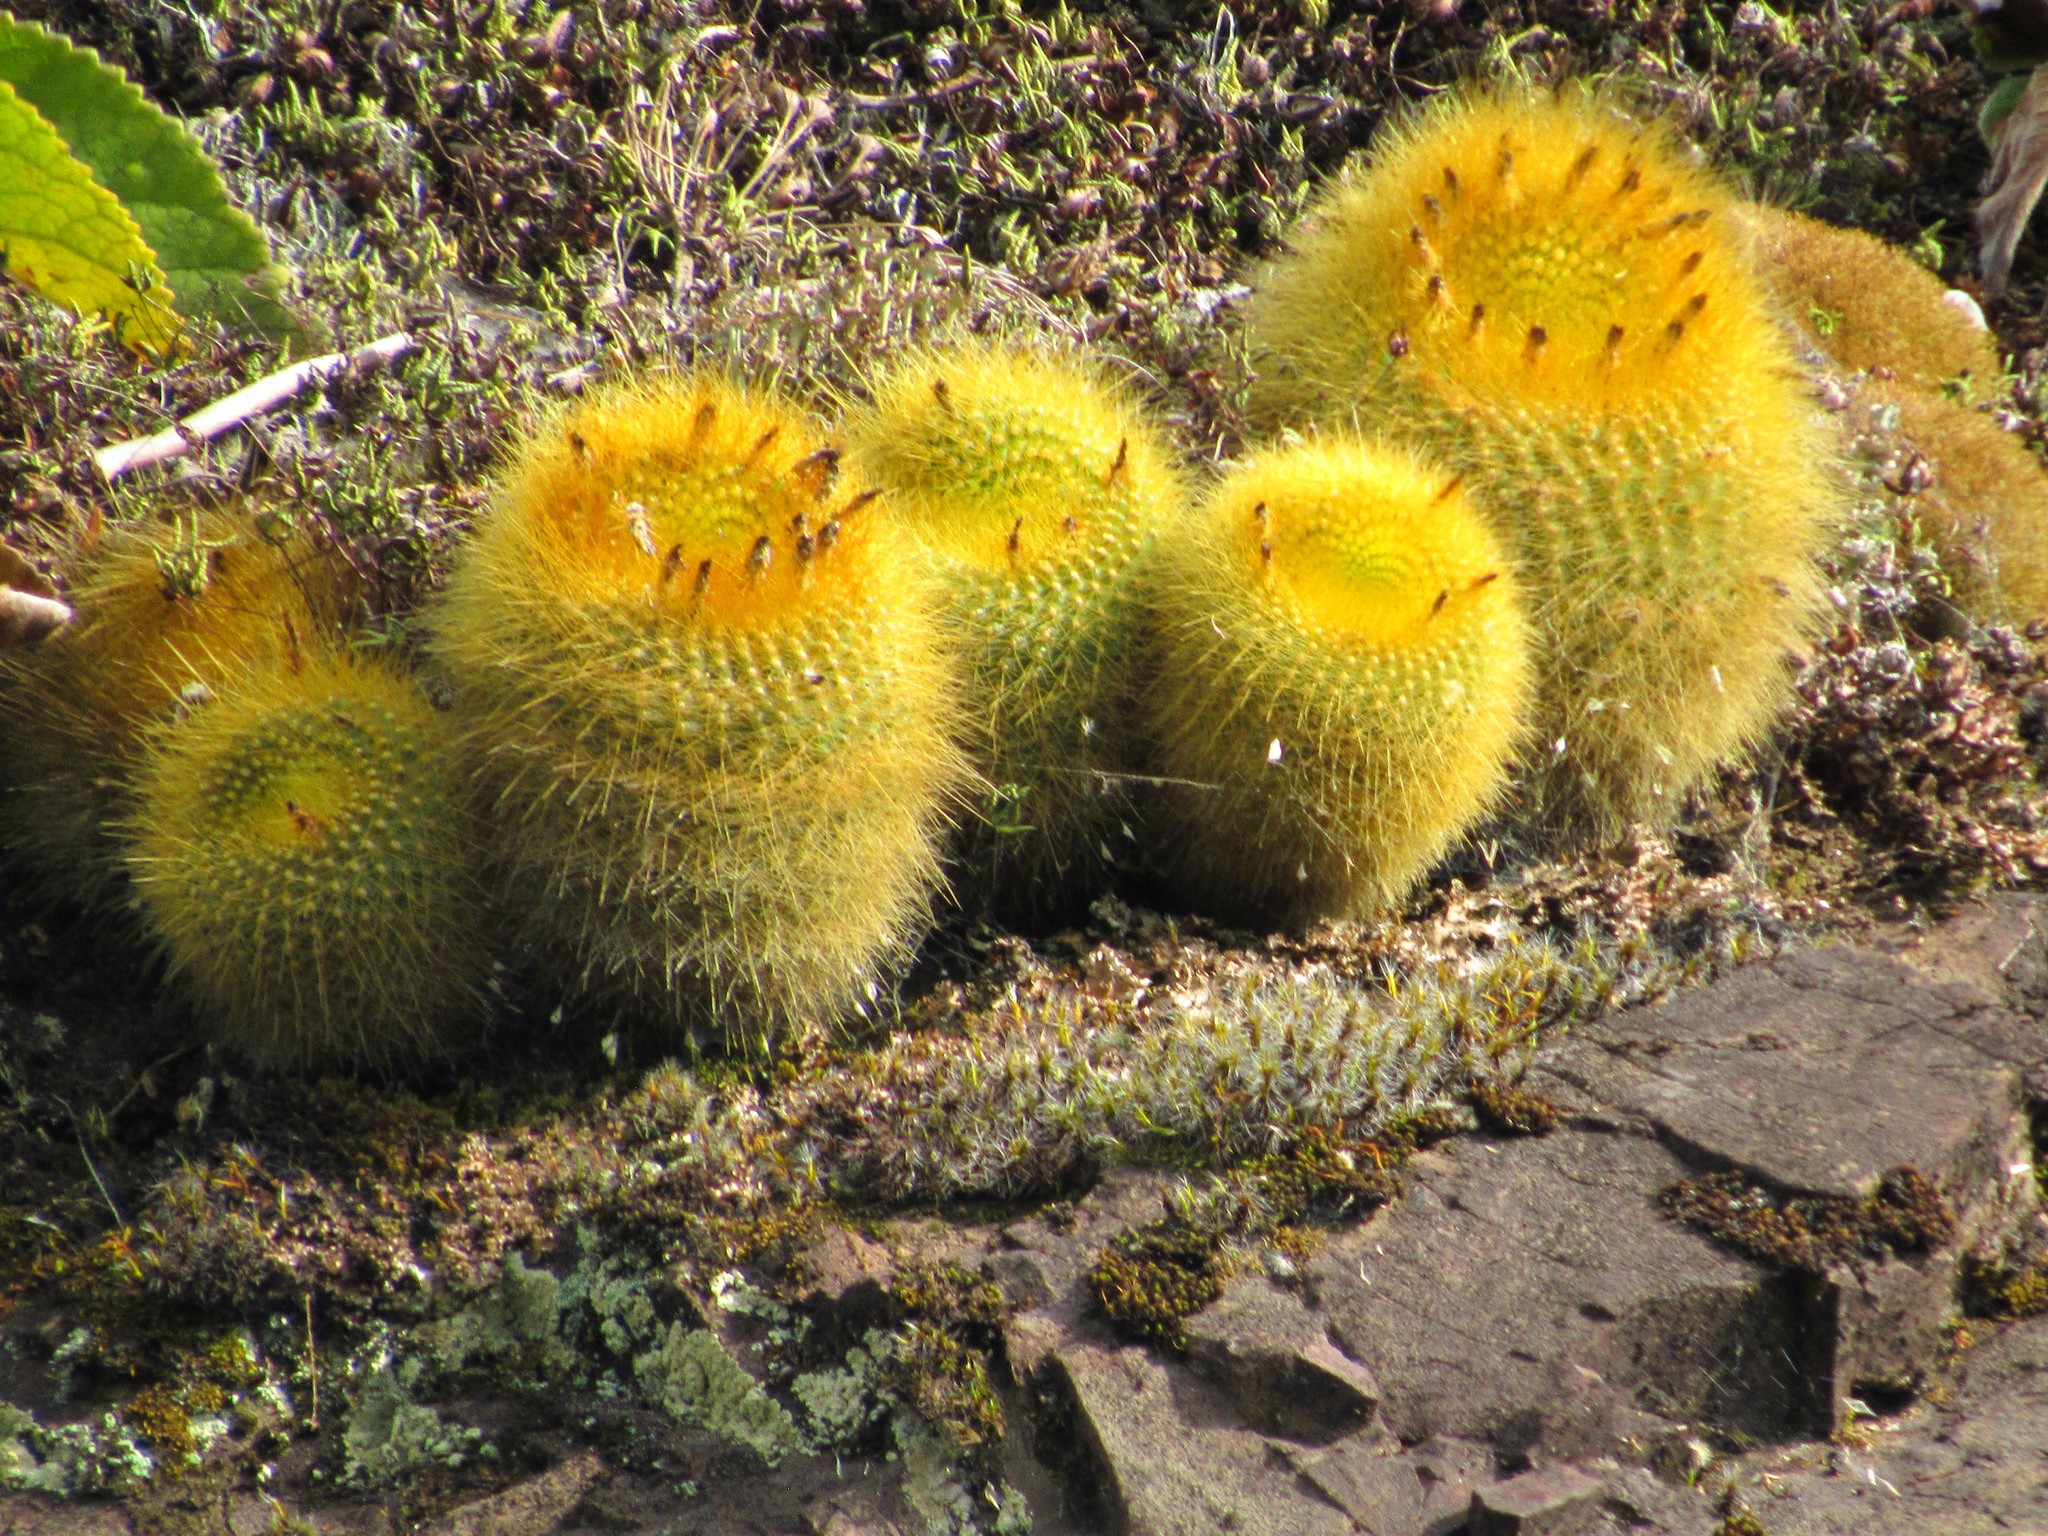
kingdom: Plantae
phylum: Tracheophyta
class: Magnoliopsida
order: Caryophyllales
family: Cactaceae
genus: Parodia
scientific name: Parodia haselbergii
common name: Scarlet ball cactus
